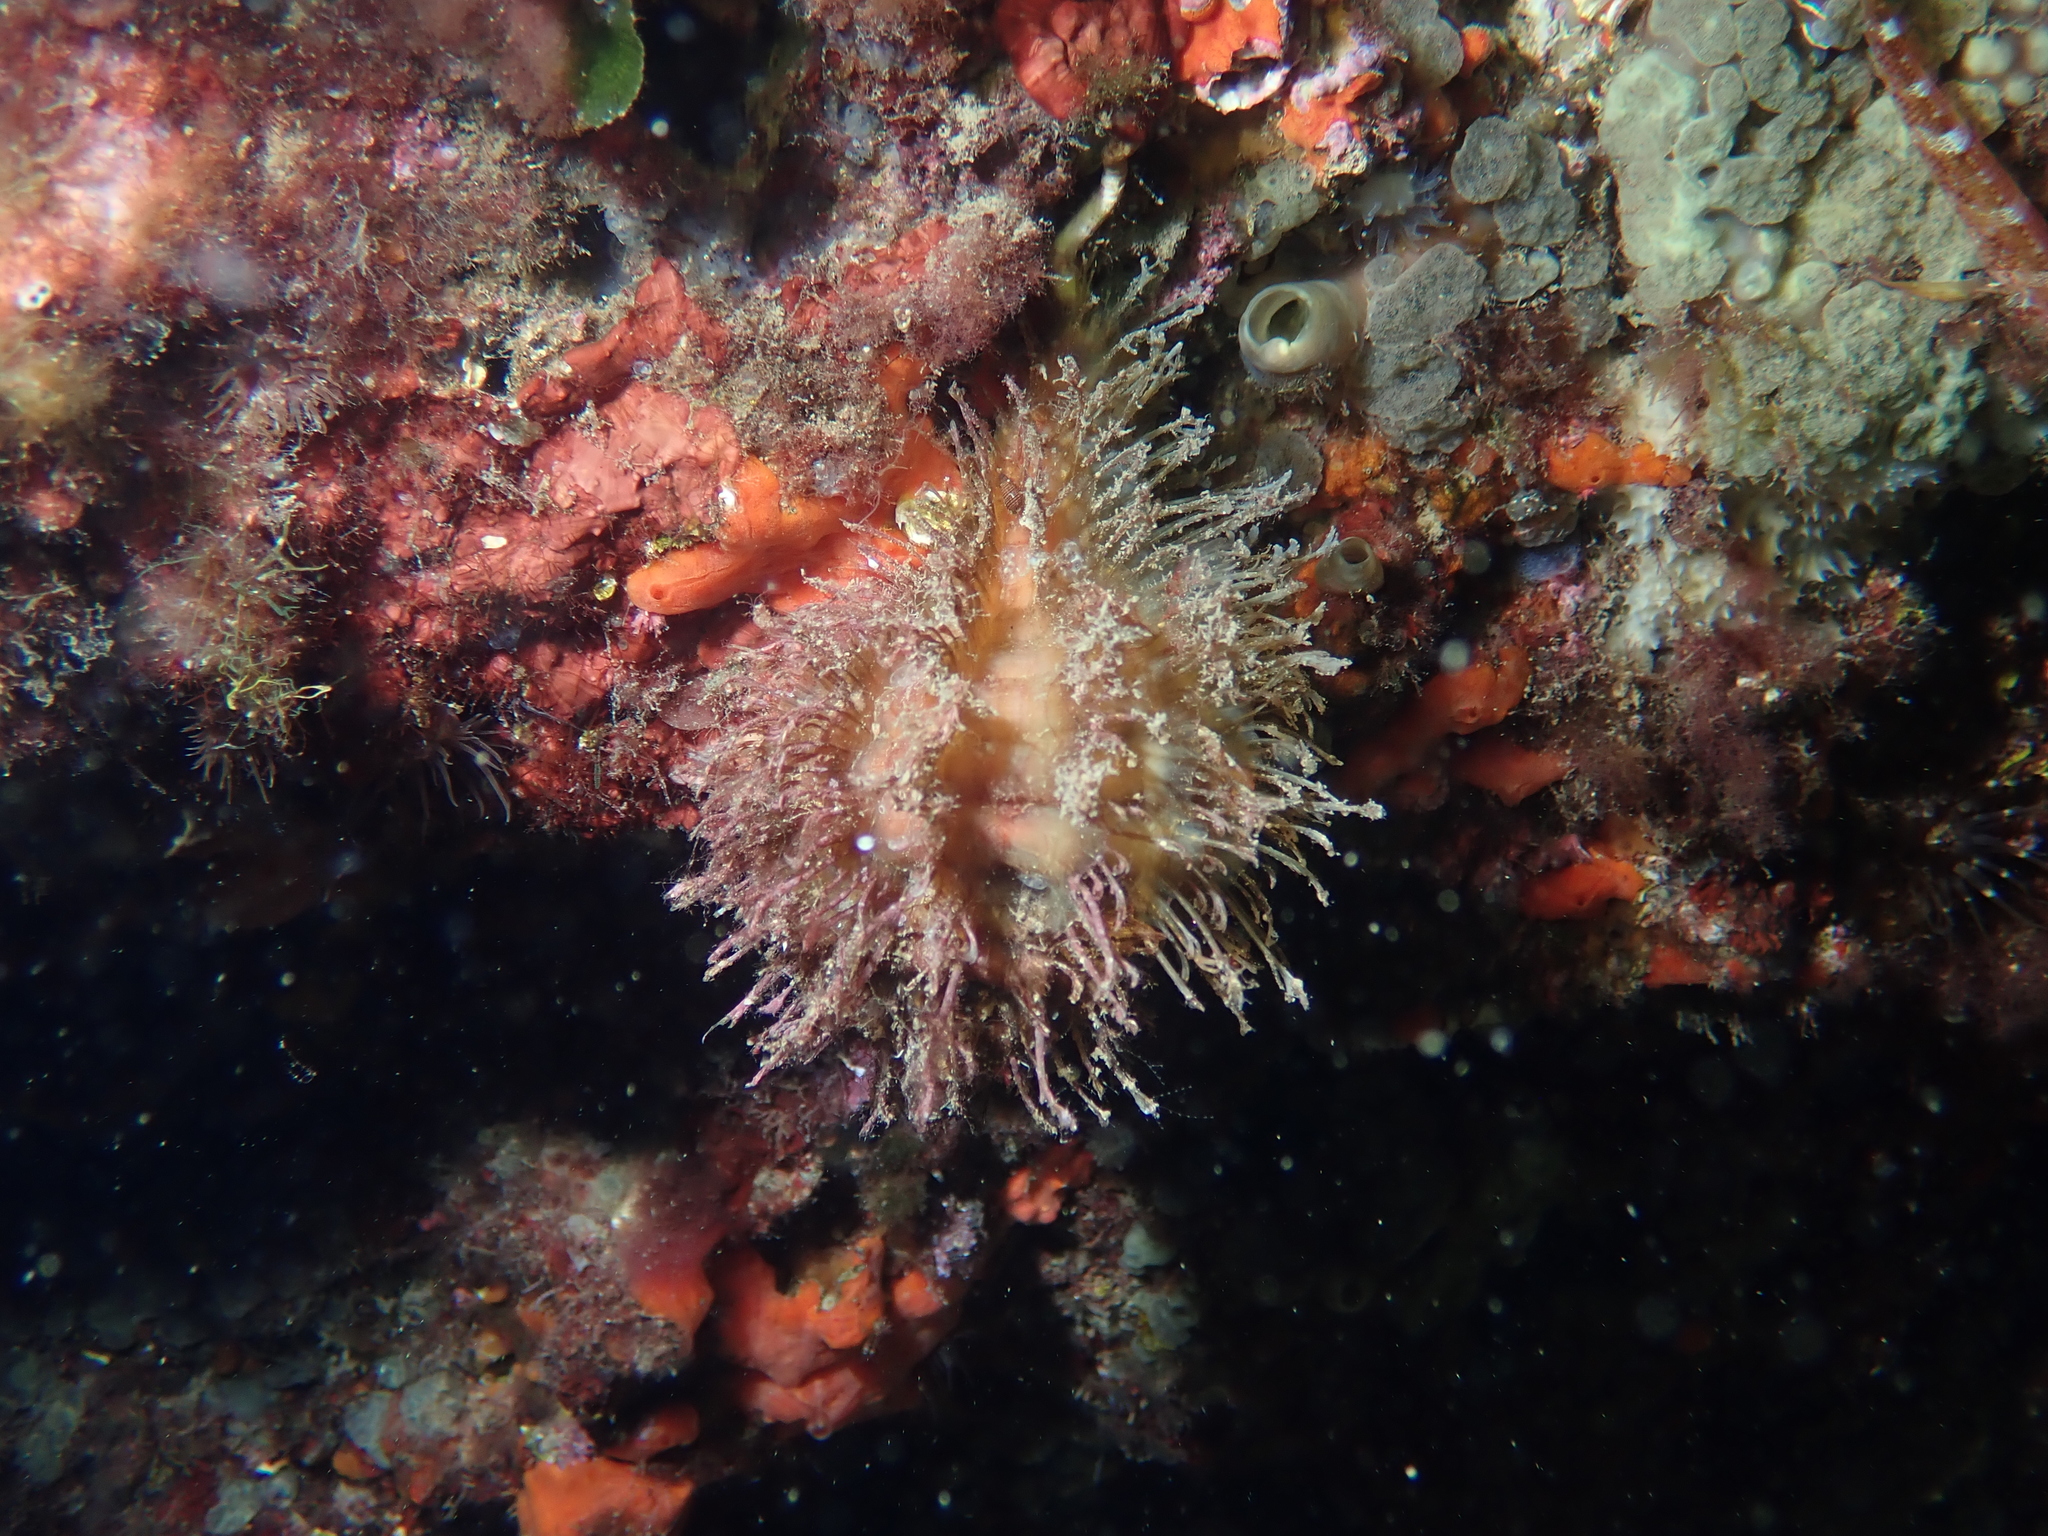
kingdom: Animalia
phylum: Mollusca
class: Gastropoda
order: Littorinimorpha
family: Cymatiidae
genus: Monoplex
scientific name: Monoplex parthenopeus
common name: Giant triton
